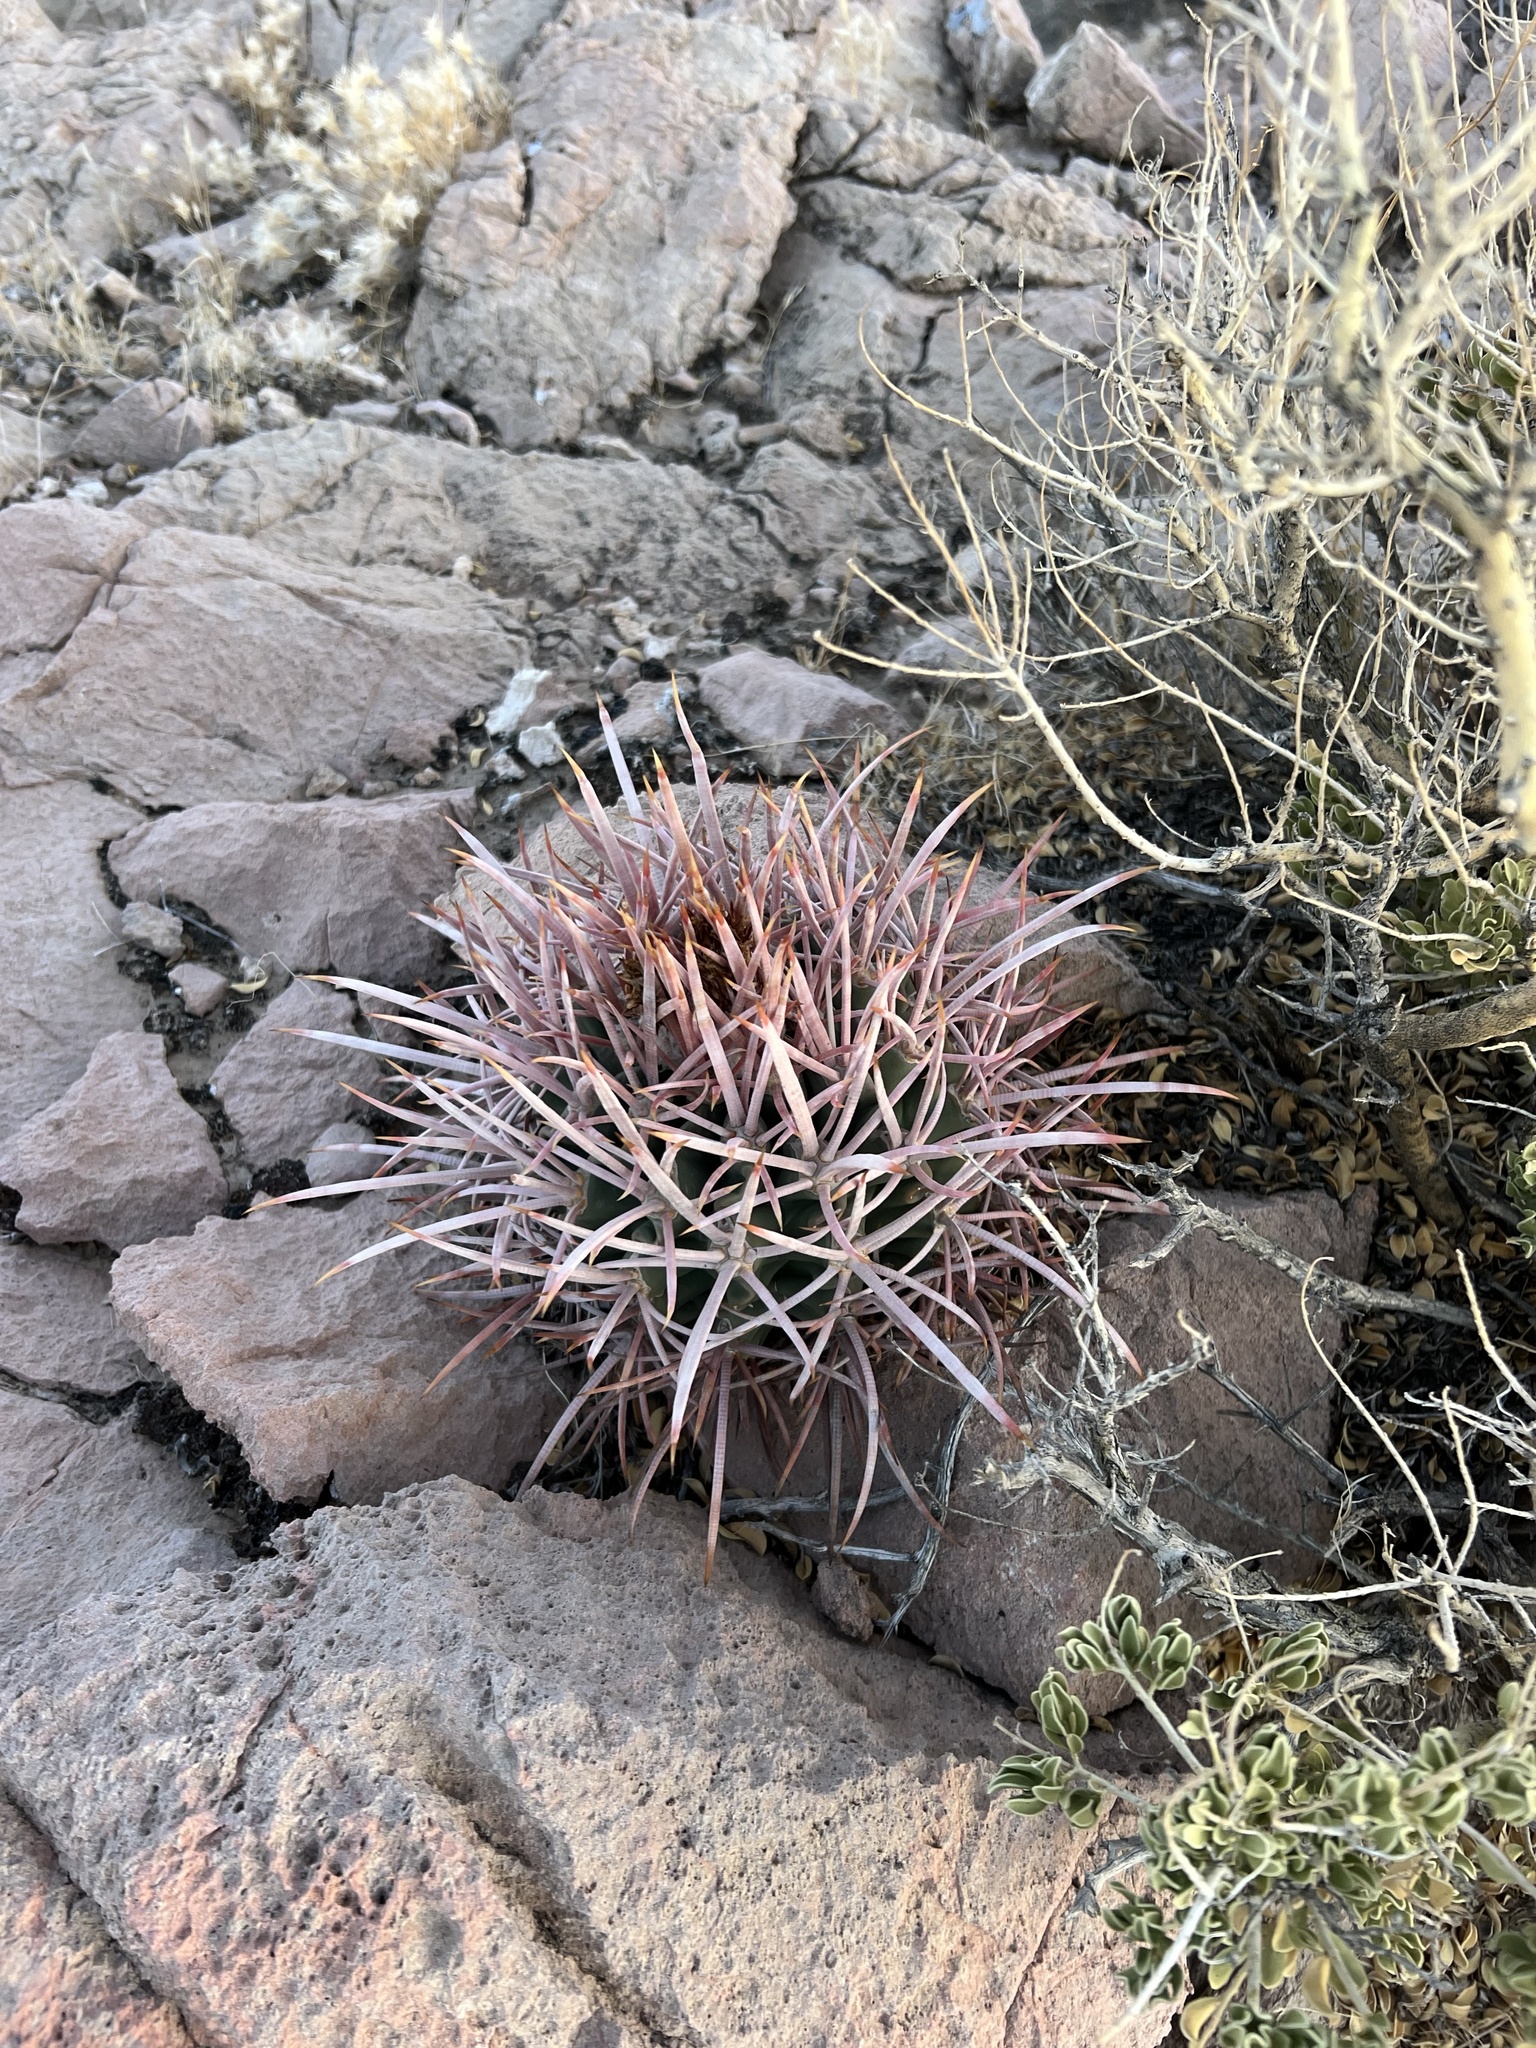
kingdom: Plantae
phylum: Tracheophyta
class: Magnoliopsida
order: Caryophyllales
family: Cactaceae
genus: Echinocactus
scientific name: Echinocactus polycephalus
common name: Cottontop cactus
